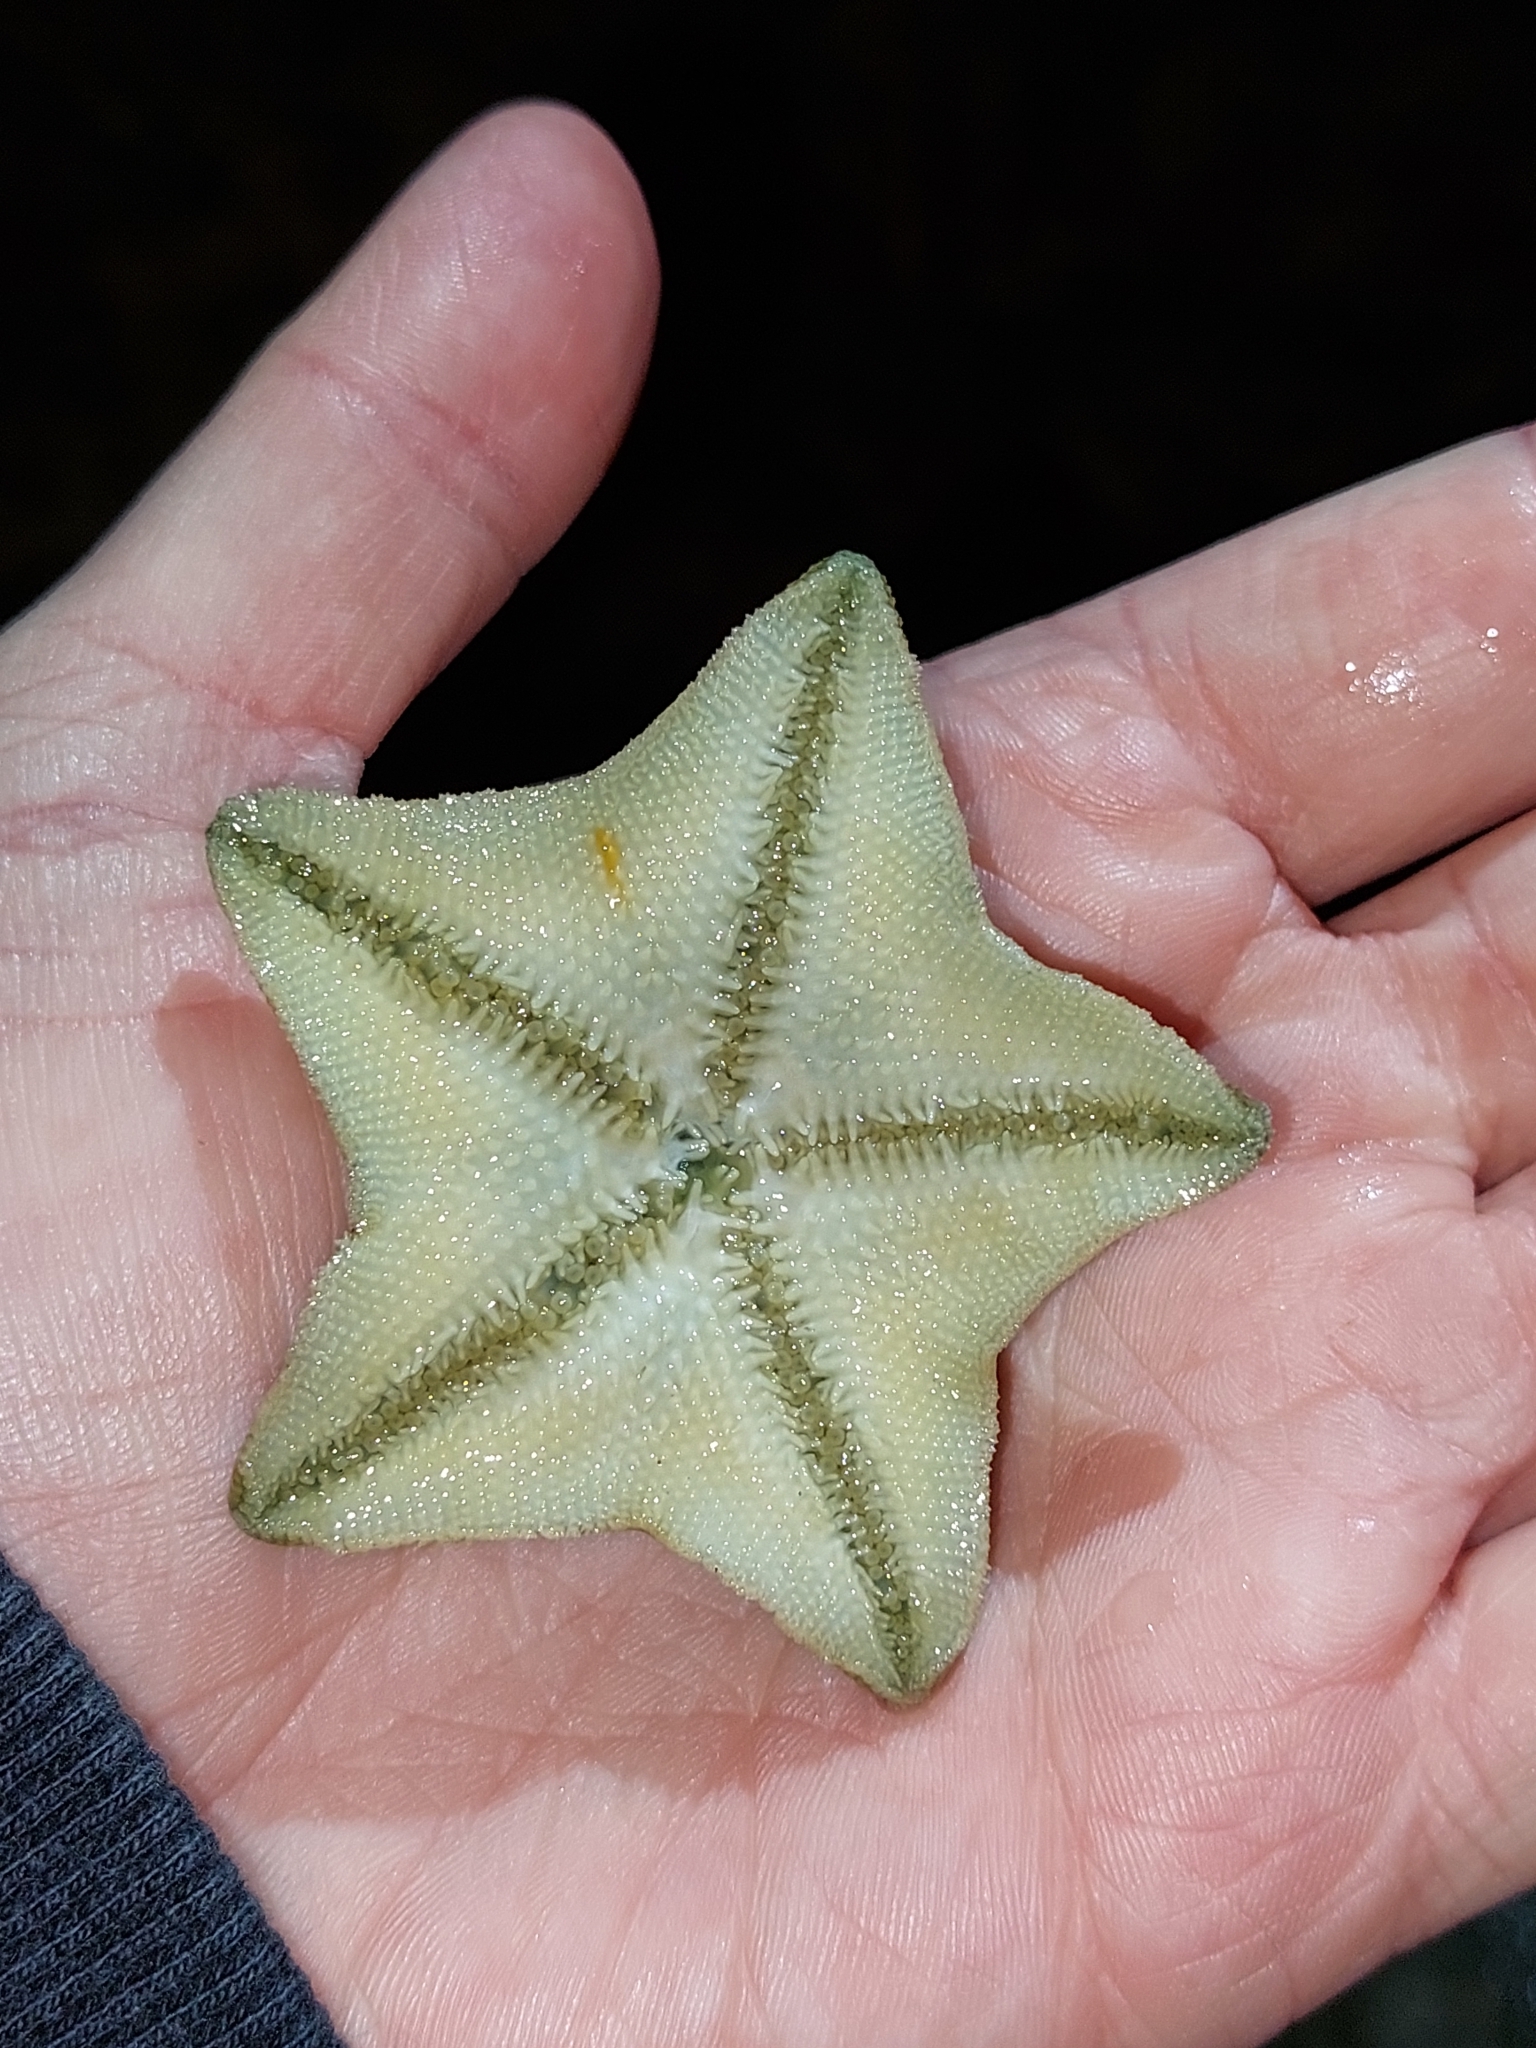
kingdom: Animalia
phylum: Echinodermata
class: Asteroidea
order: Valvatida
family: Asterinidae
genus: Patiriella
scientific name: Patiriella regularis
